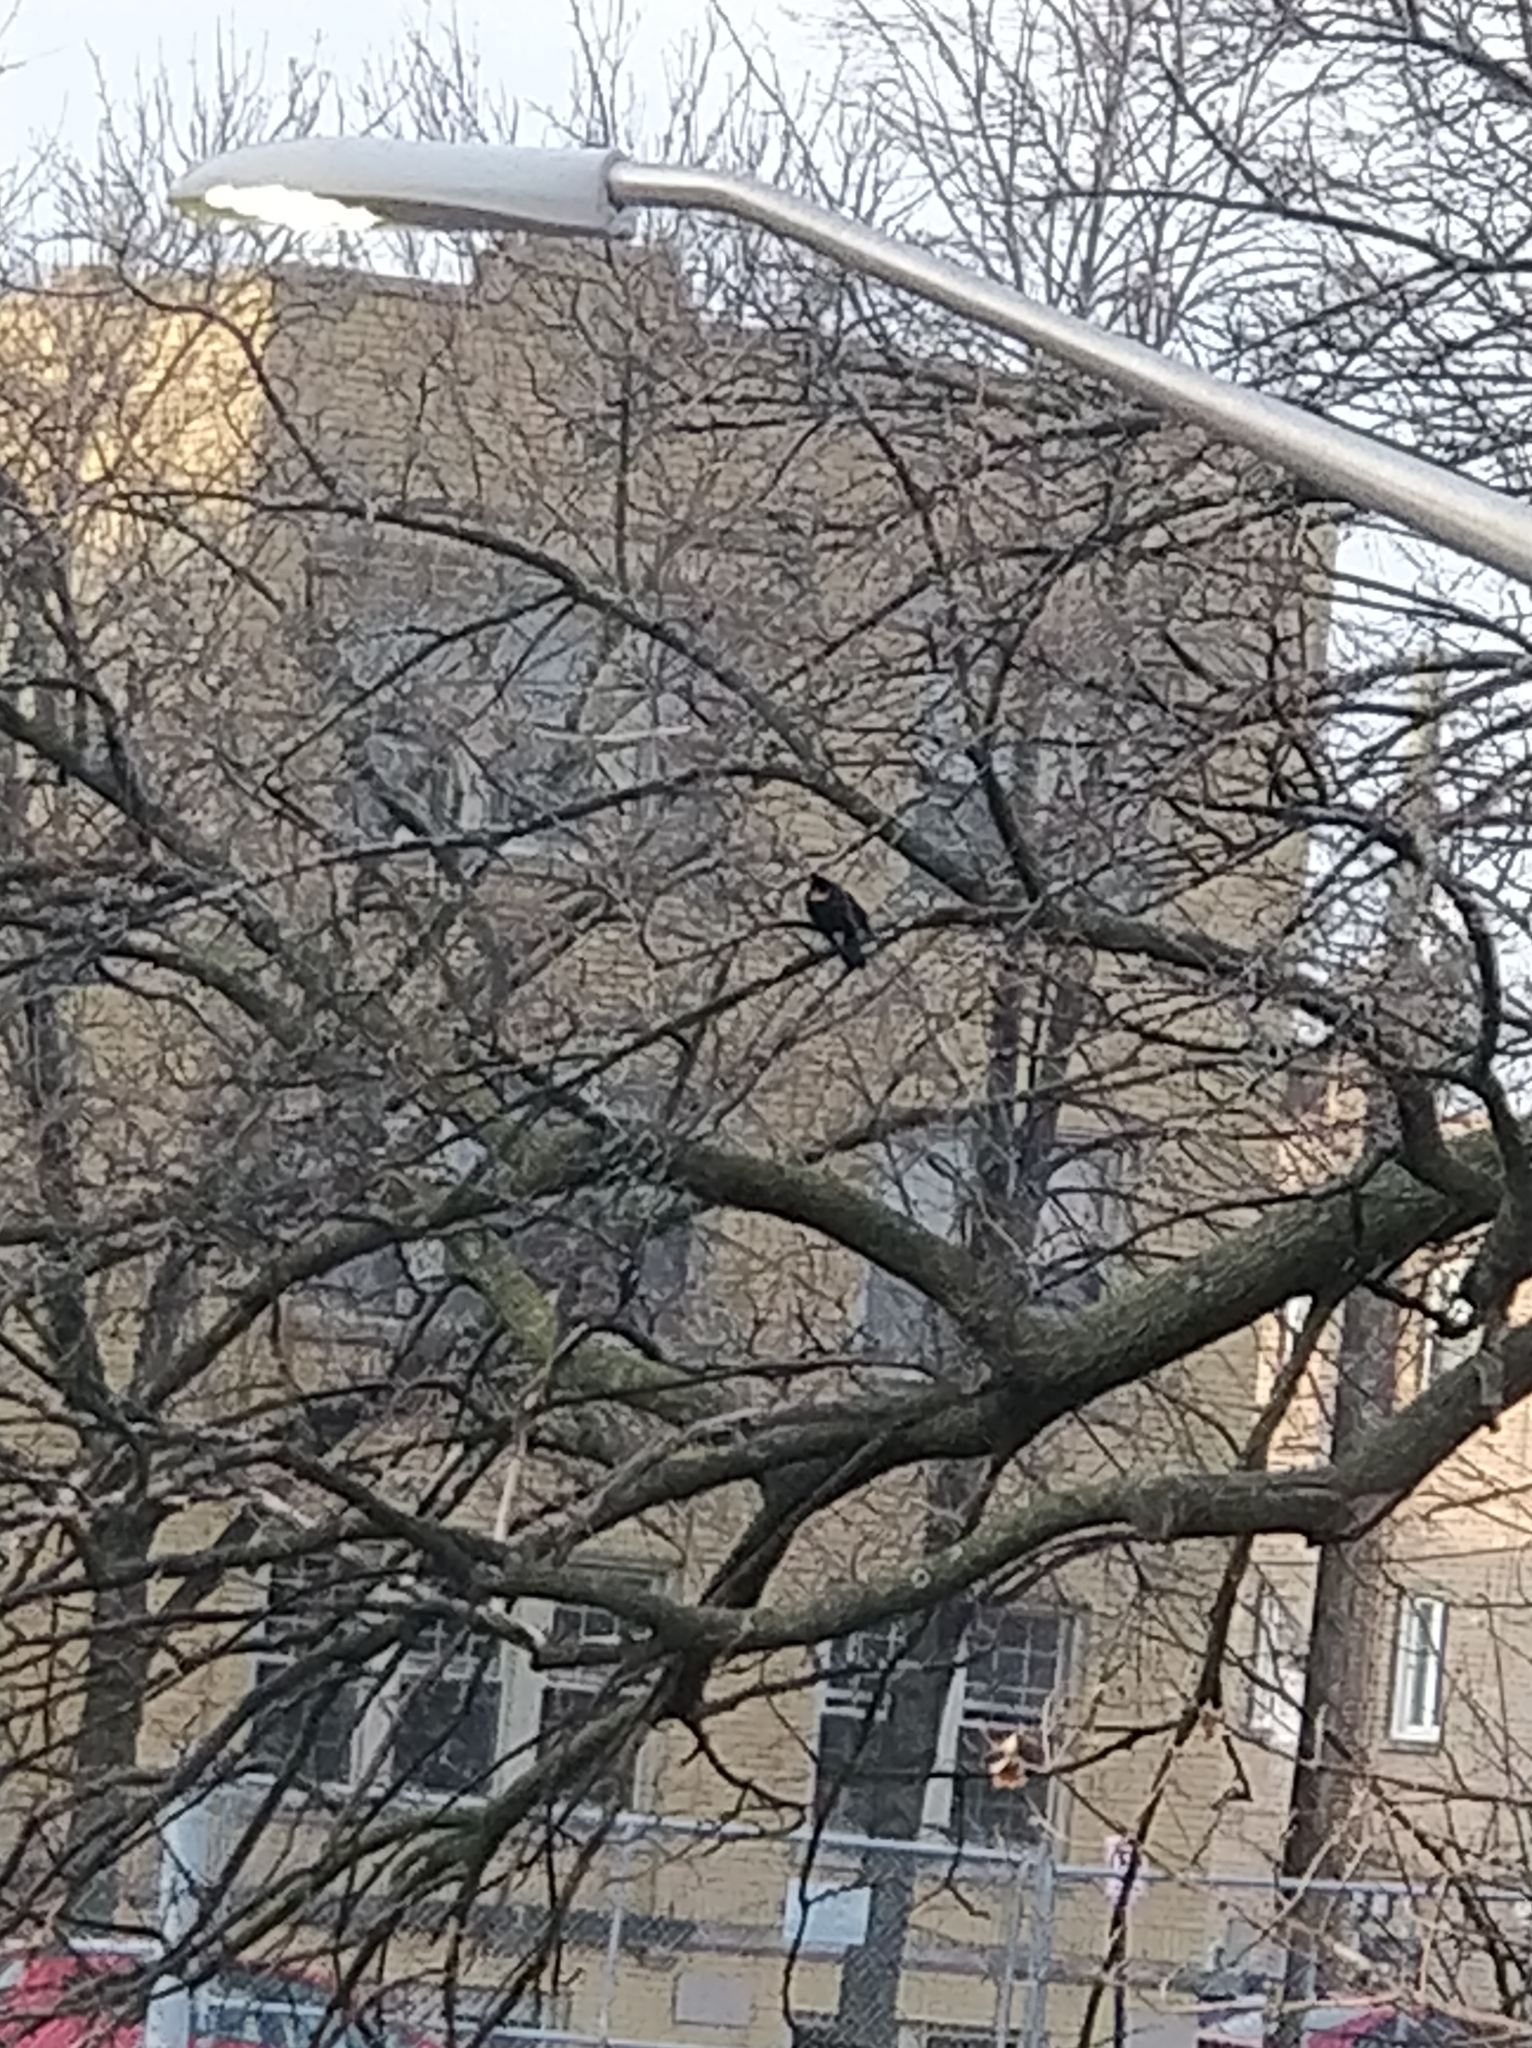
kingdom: Animalia
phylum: Chordata
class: Aves
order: Passeriformes
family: Icteridae
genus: Agelaius
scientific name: Agelaius phoeniceus
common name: Red-winged blackbird
